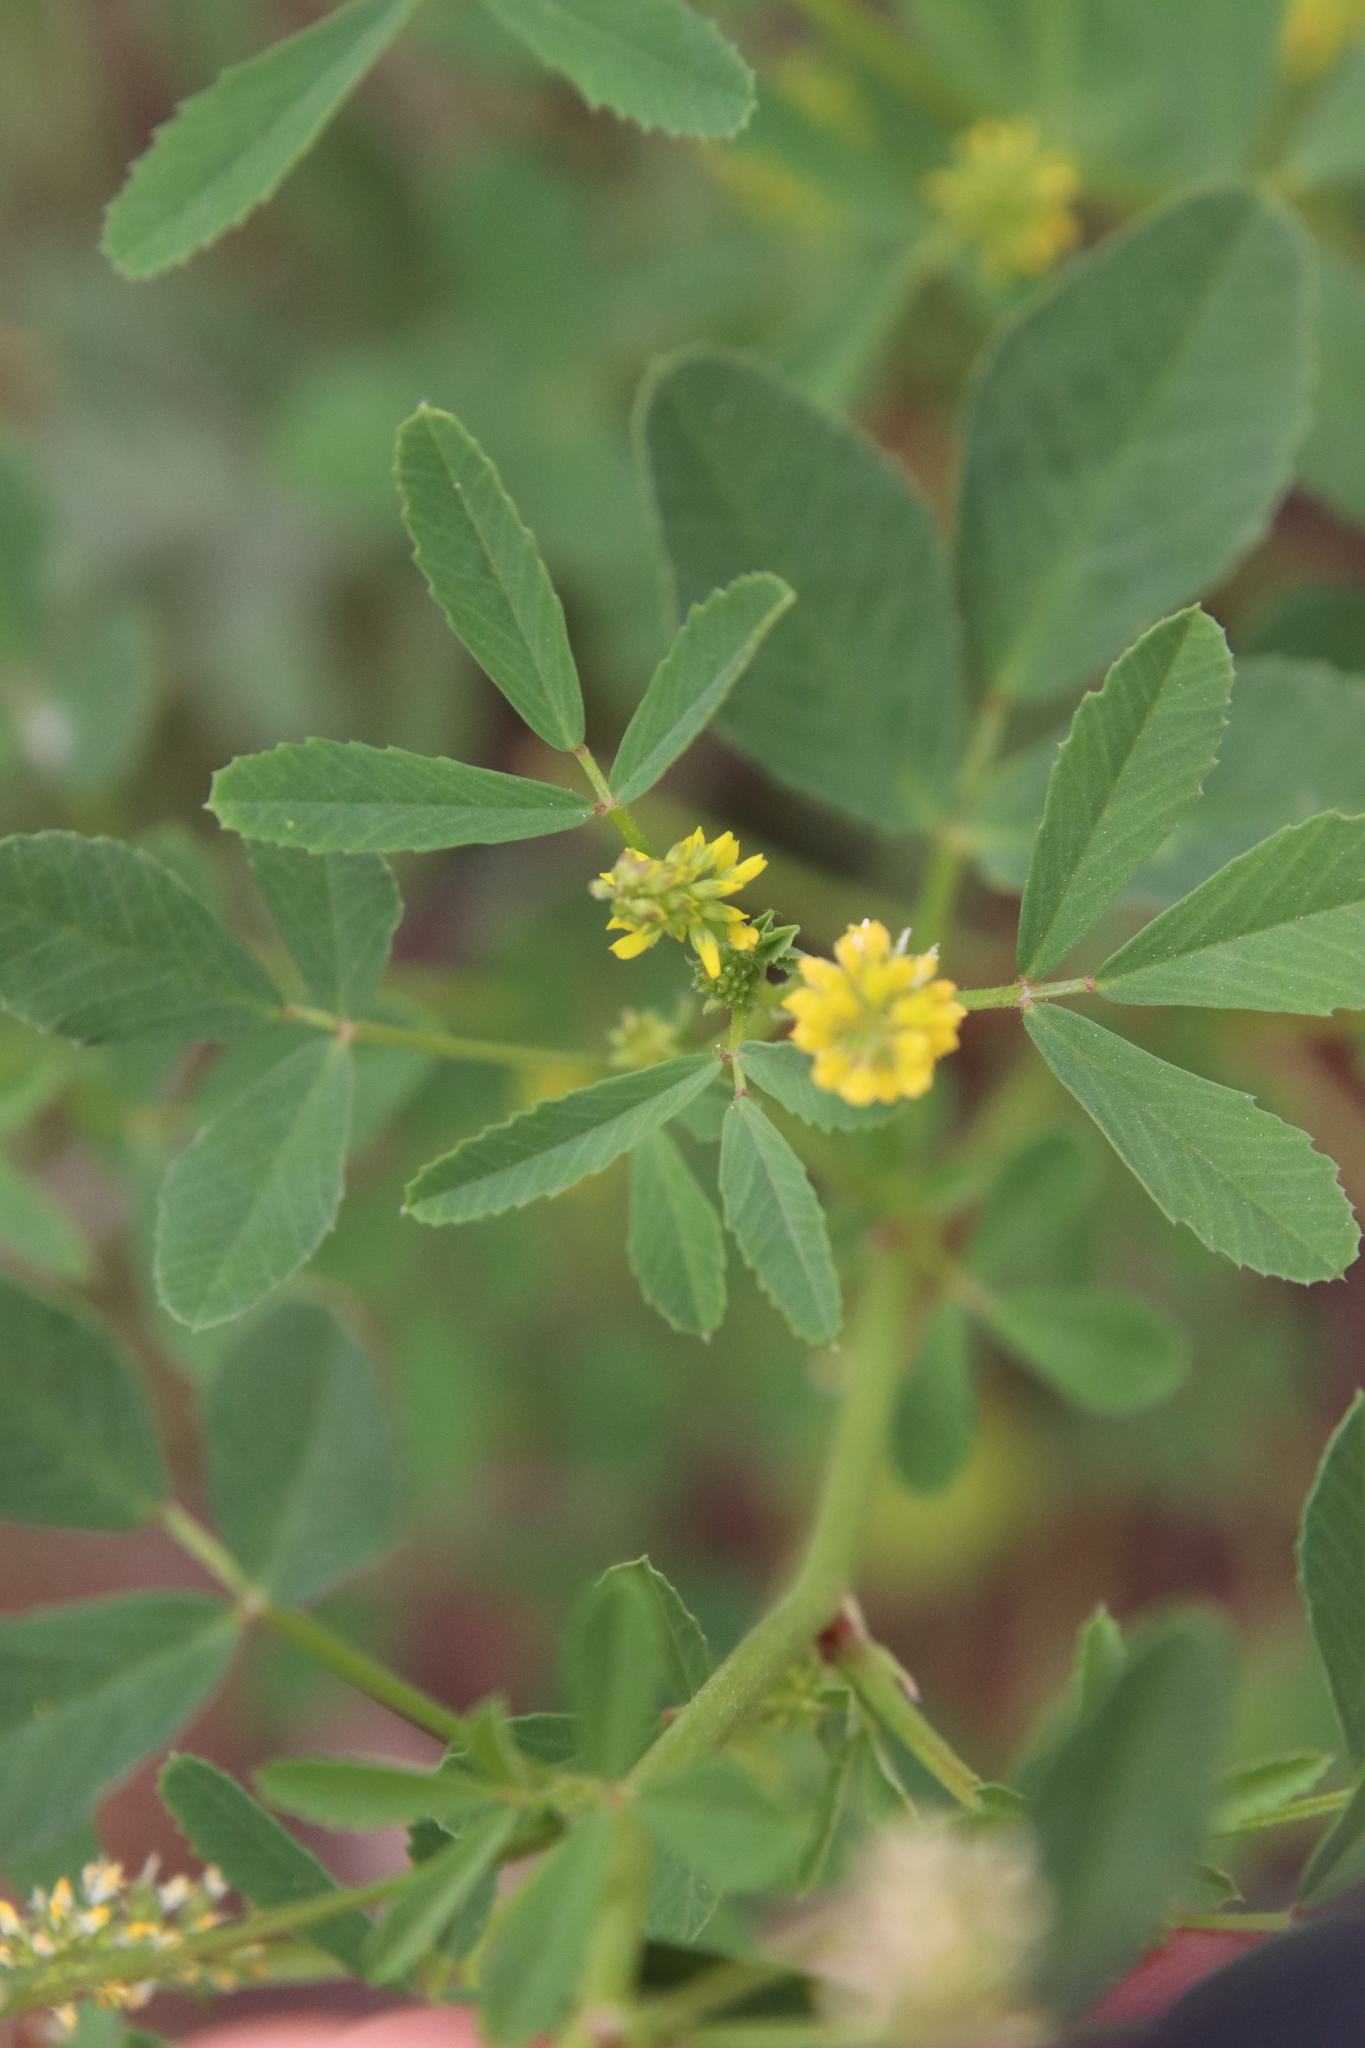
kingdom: Plantae
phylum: Tracheophyta
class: Magnoliopsida
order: Fabales
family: Fabaceae
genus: Melilotus
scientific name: Melilotus indicus
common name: Small melilot
